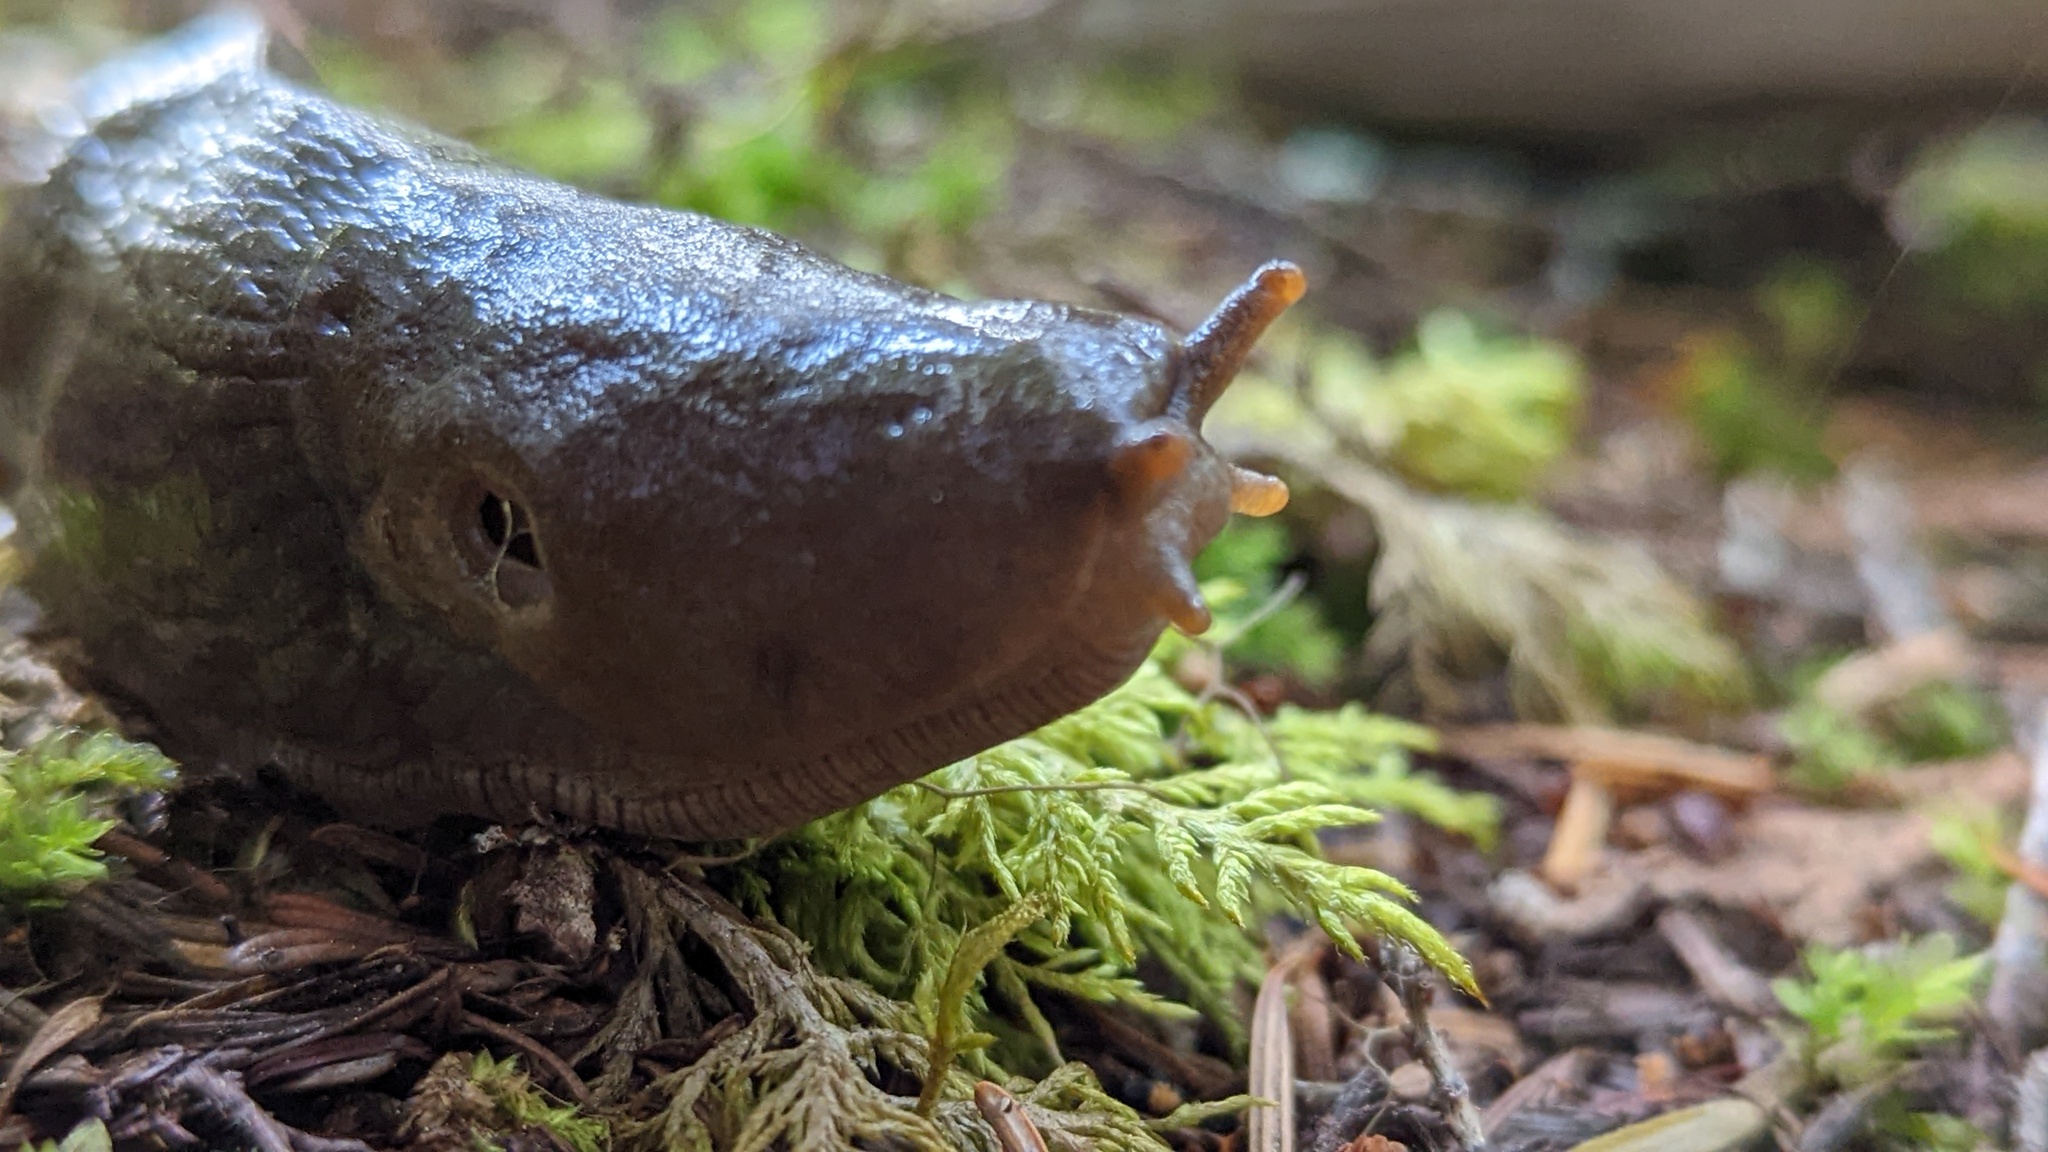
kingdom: Animalia
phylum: Mollusca
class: Gastropoda
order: Stylommatophora
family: Ariolimacidae
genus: Ariolimax
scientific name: Ariolimax columbianus
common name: Pacific banana slug
